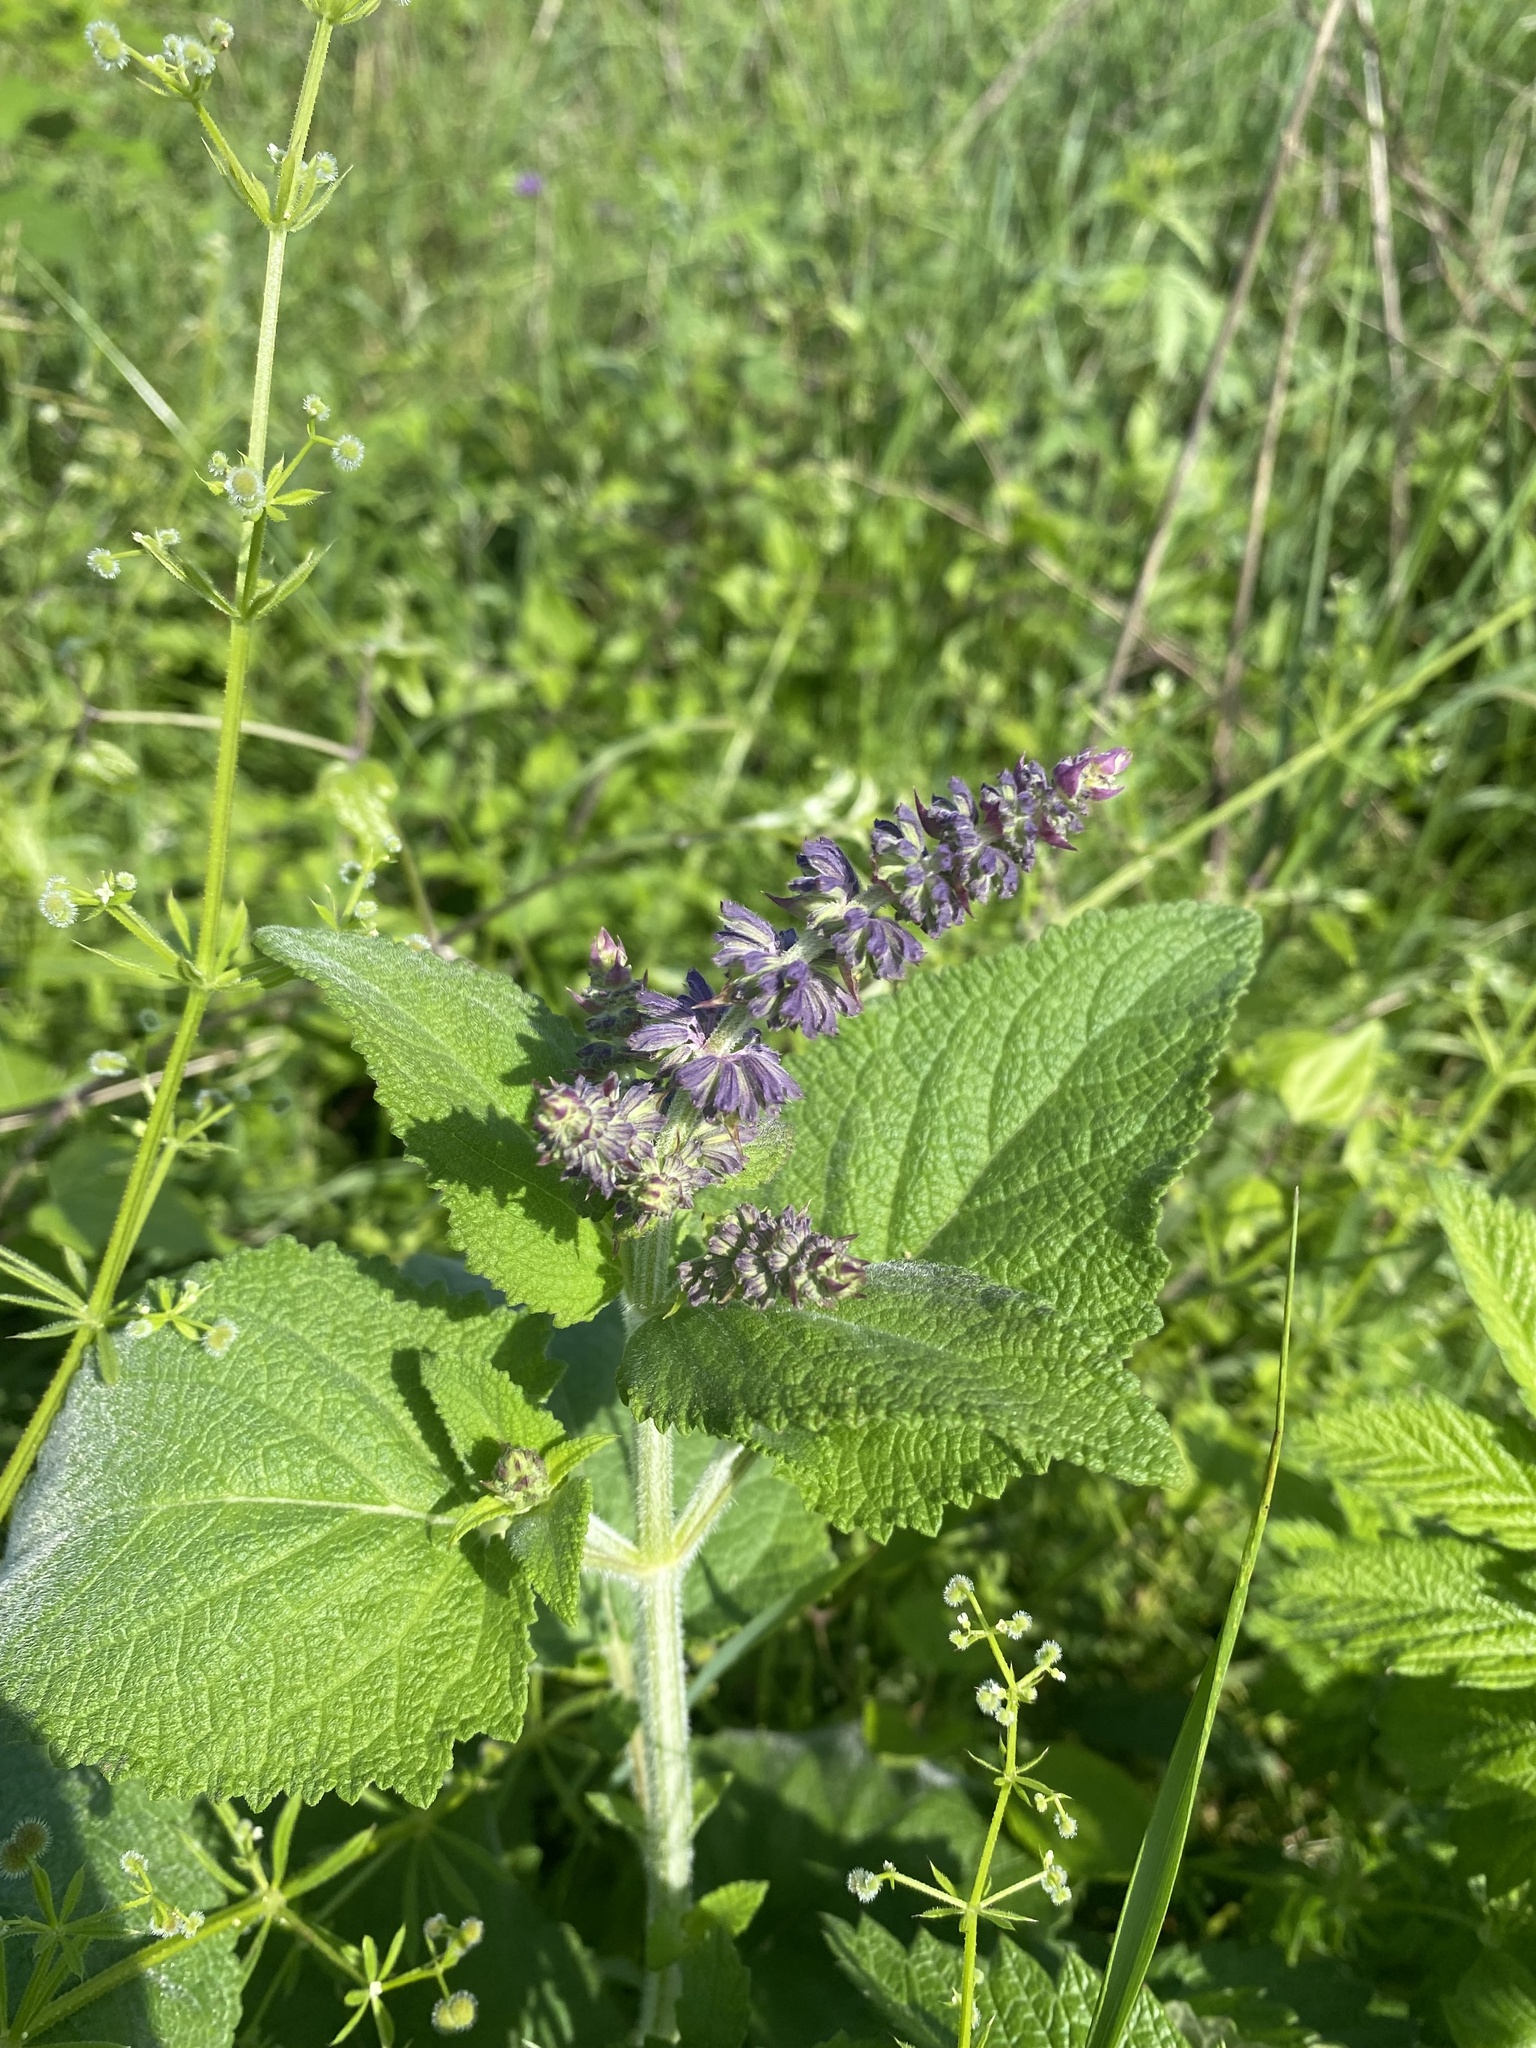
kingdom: Plantae
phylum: Tracheophyta
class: Magnoliopsida
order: Lamiales
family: Lamiaceae
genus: Salvia
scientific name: Salvia verticillata
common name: Whorled clary
